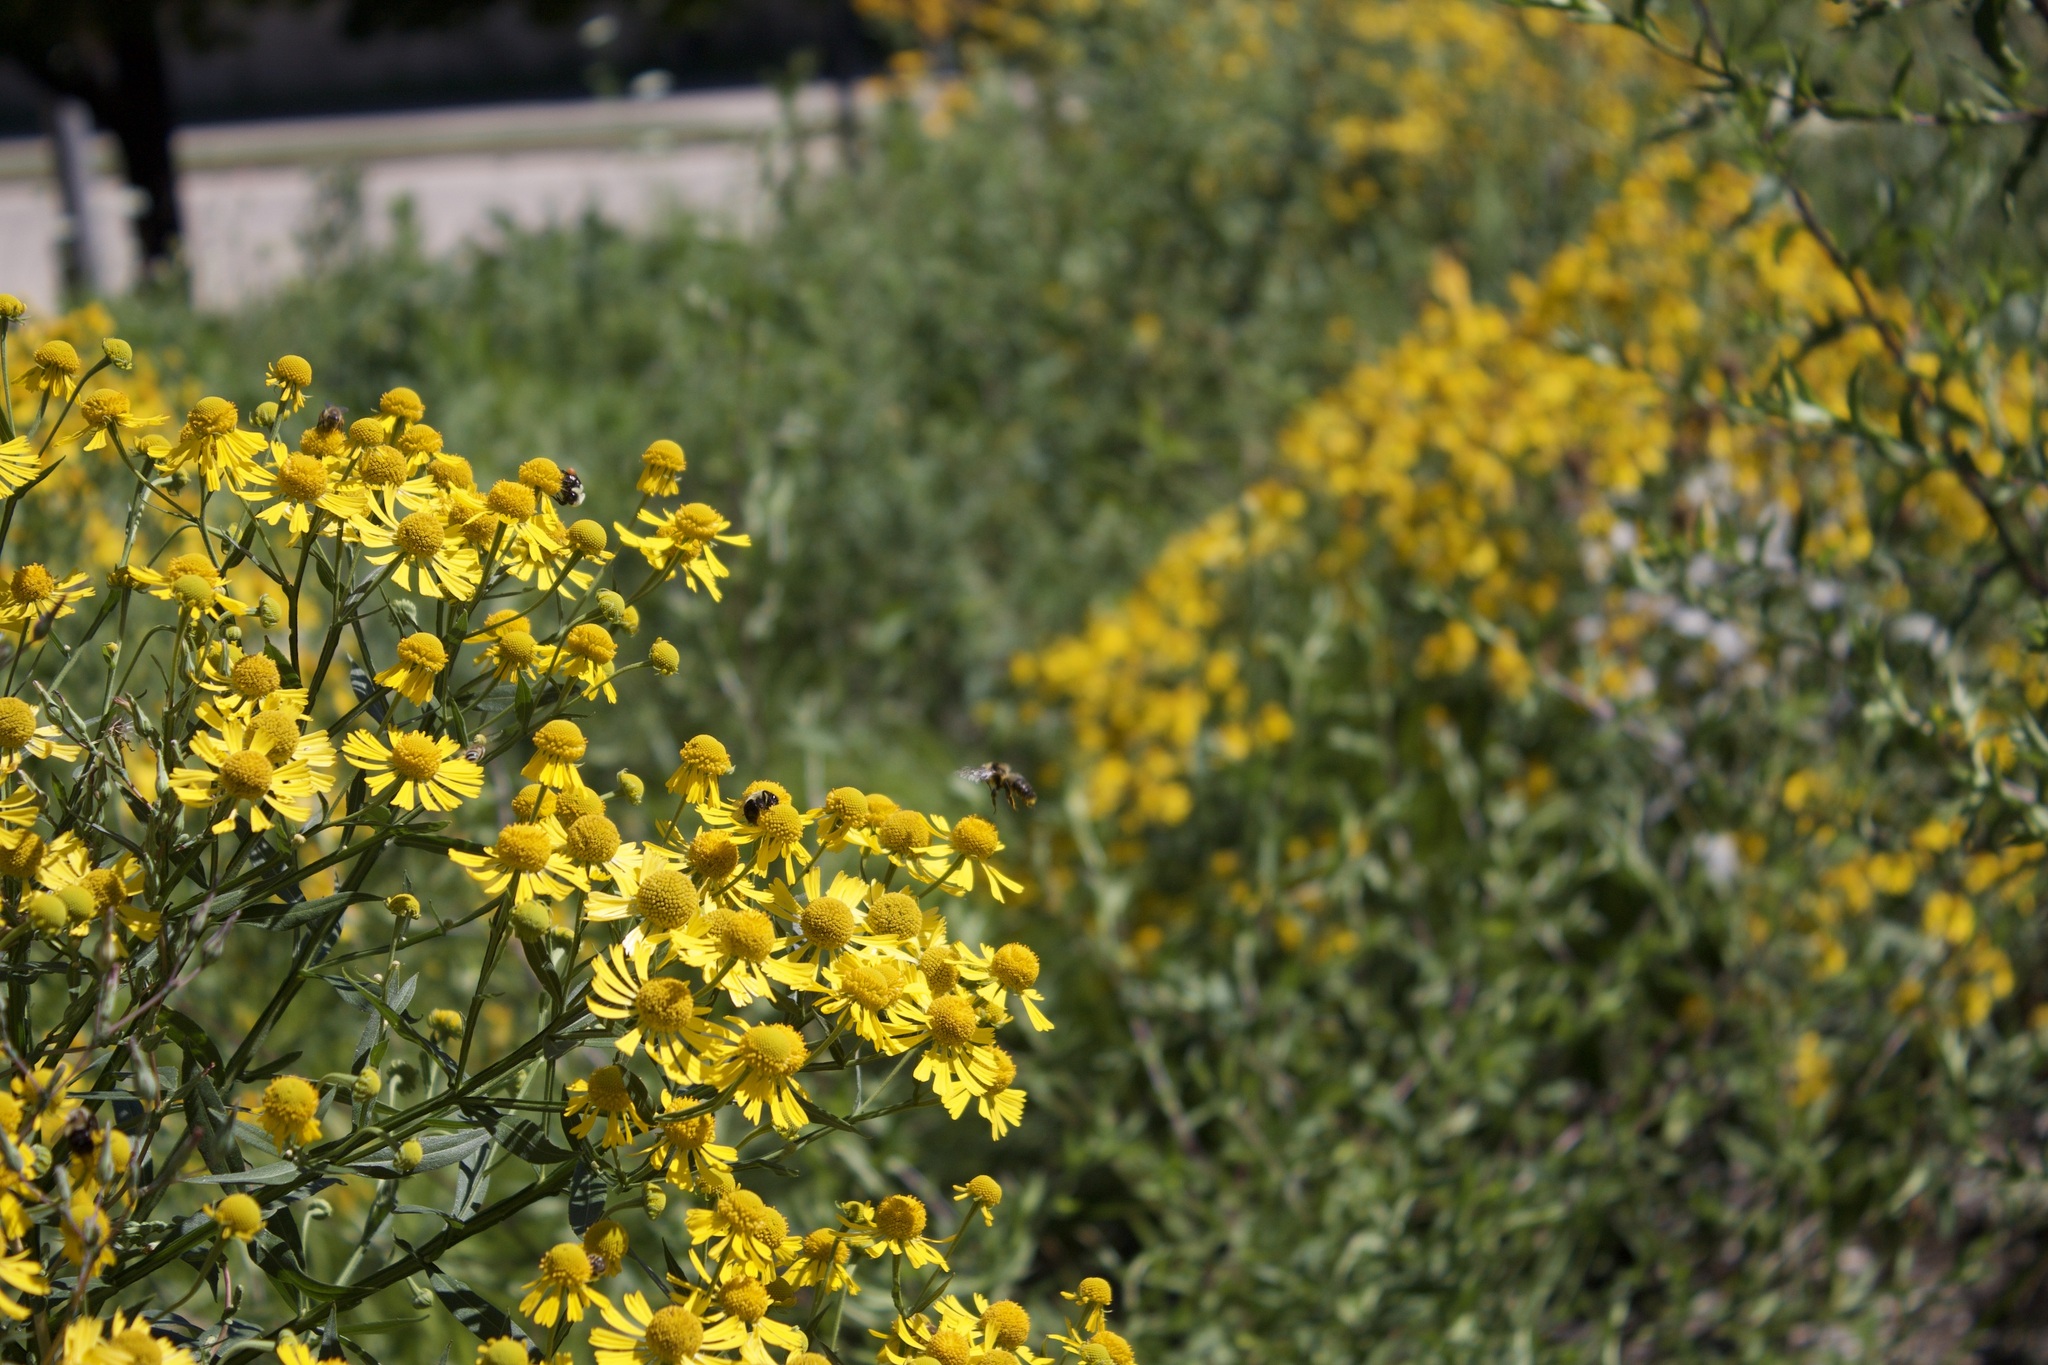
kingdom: Animalia
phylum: Arthropoda
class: Insecta
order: Hymenoptera
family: Apidae
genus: Bombus
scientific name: Bombus impatiens
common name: Common eastern bumble bee
